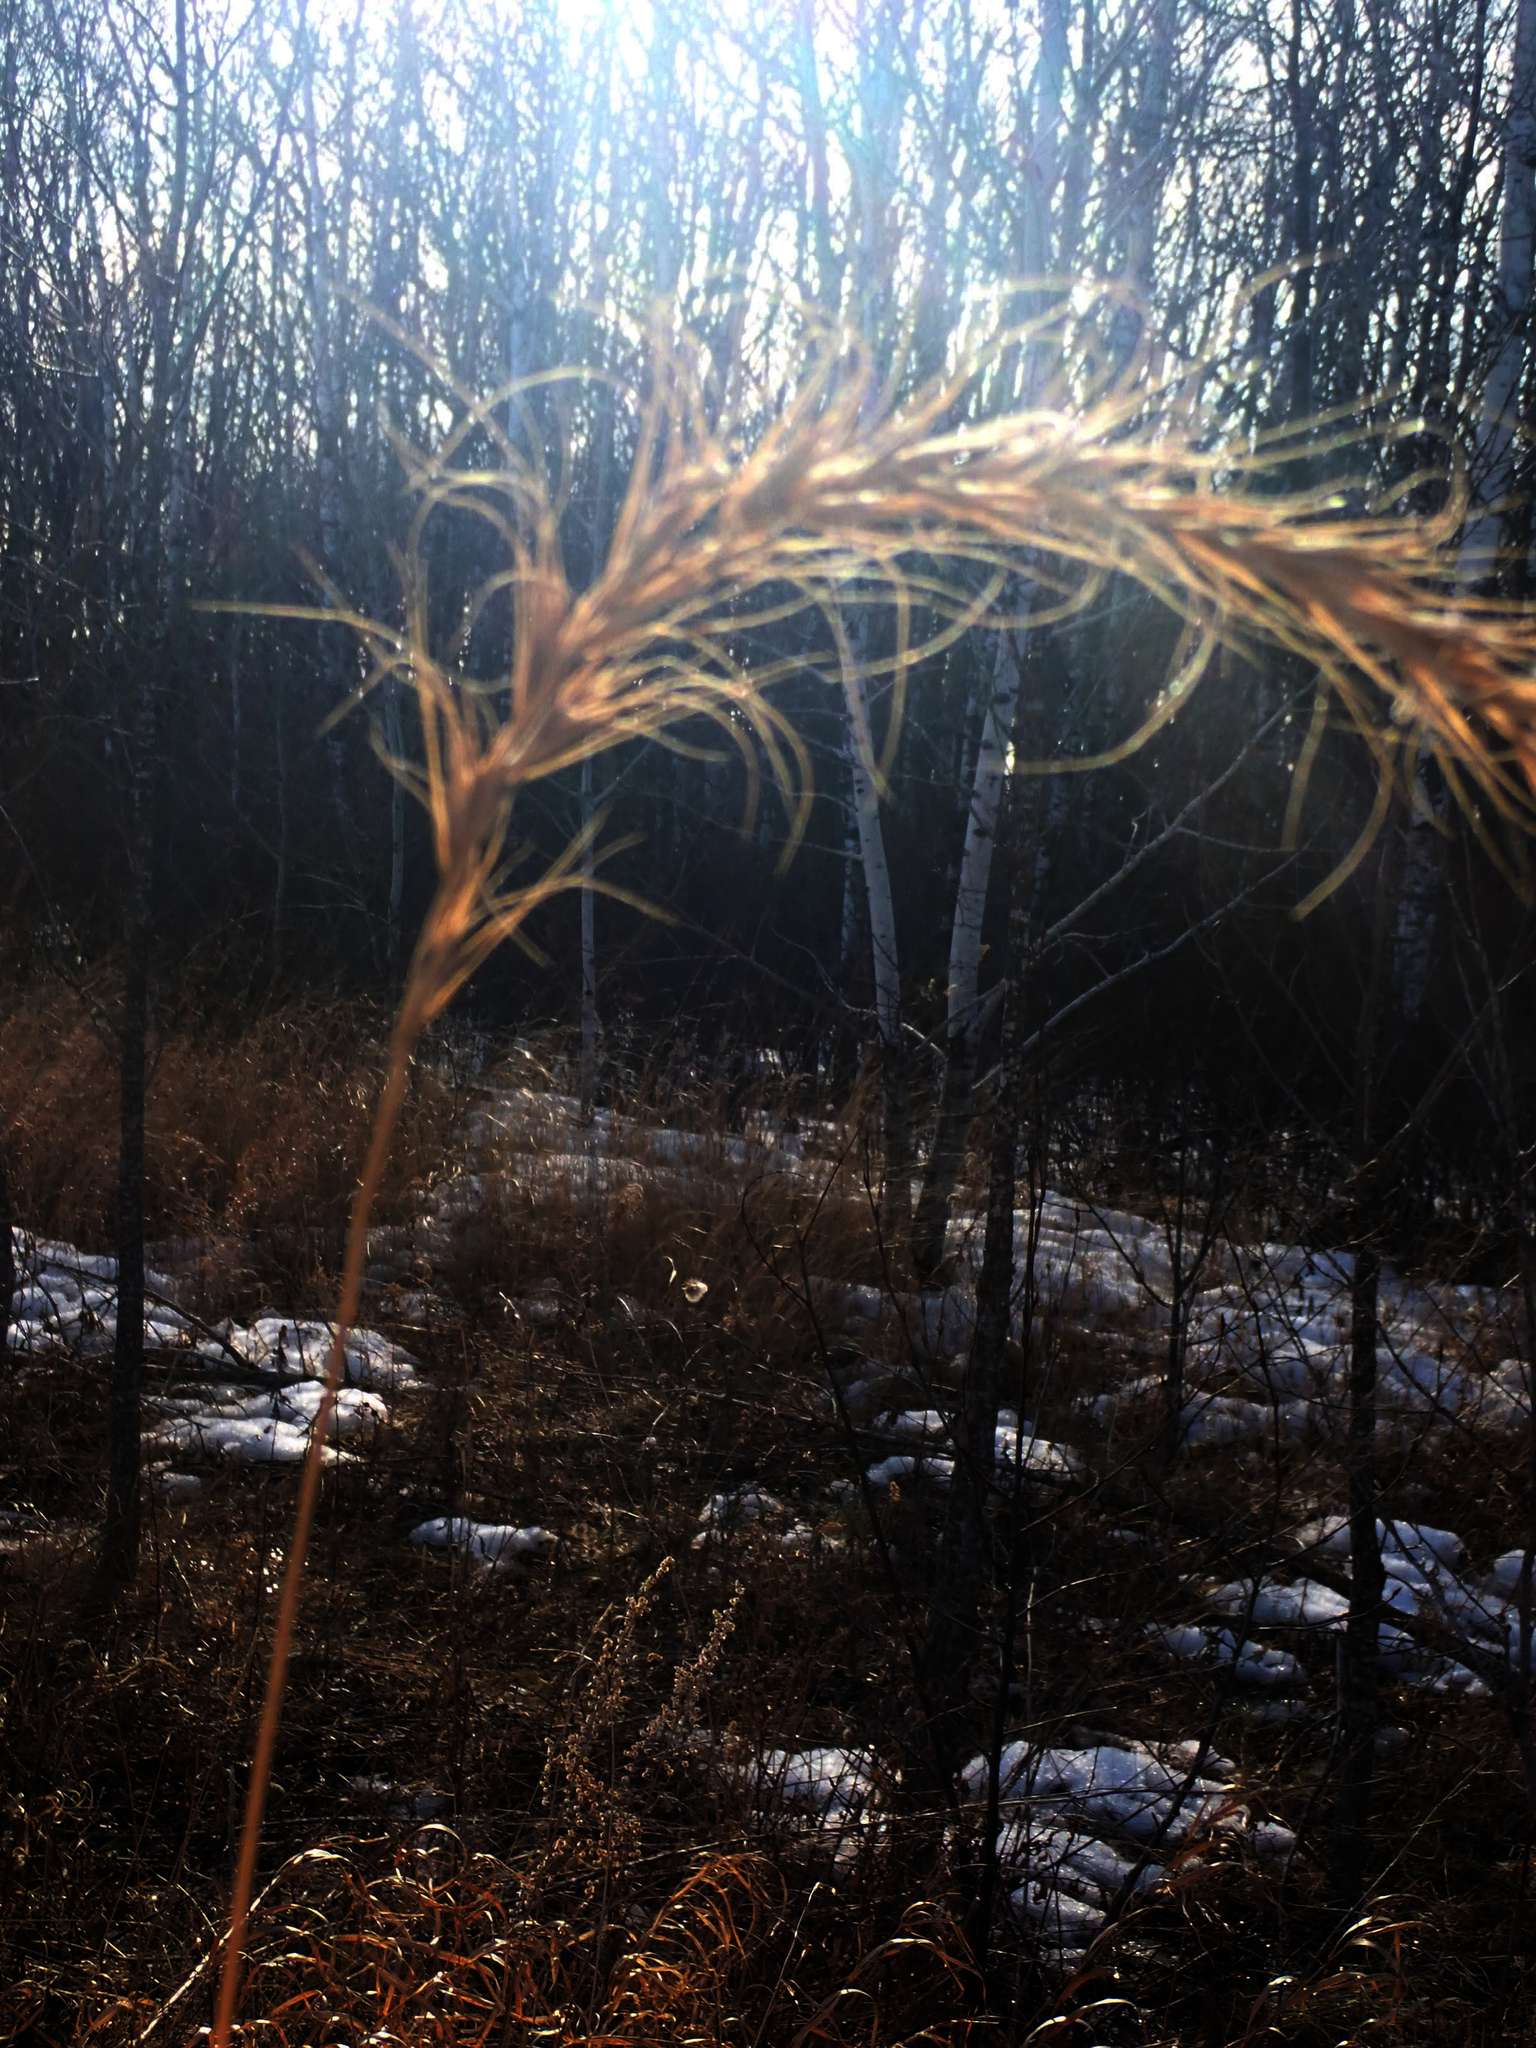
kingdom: Plantae
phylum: Tracheophyta
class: Liliopsida
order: Poales
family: Poaceae
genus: Elymus
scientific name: Elymus canadensis
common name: Canada wild rye
